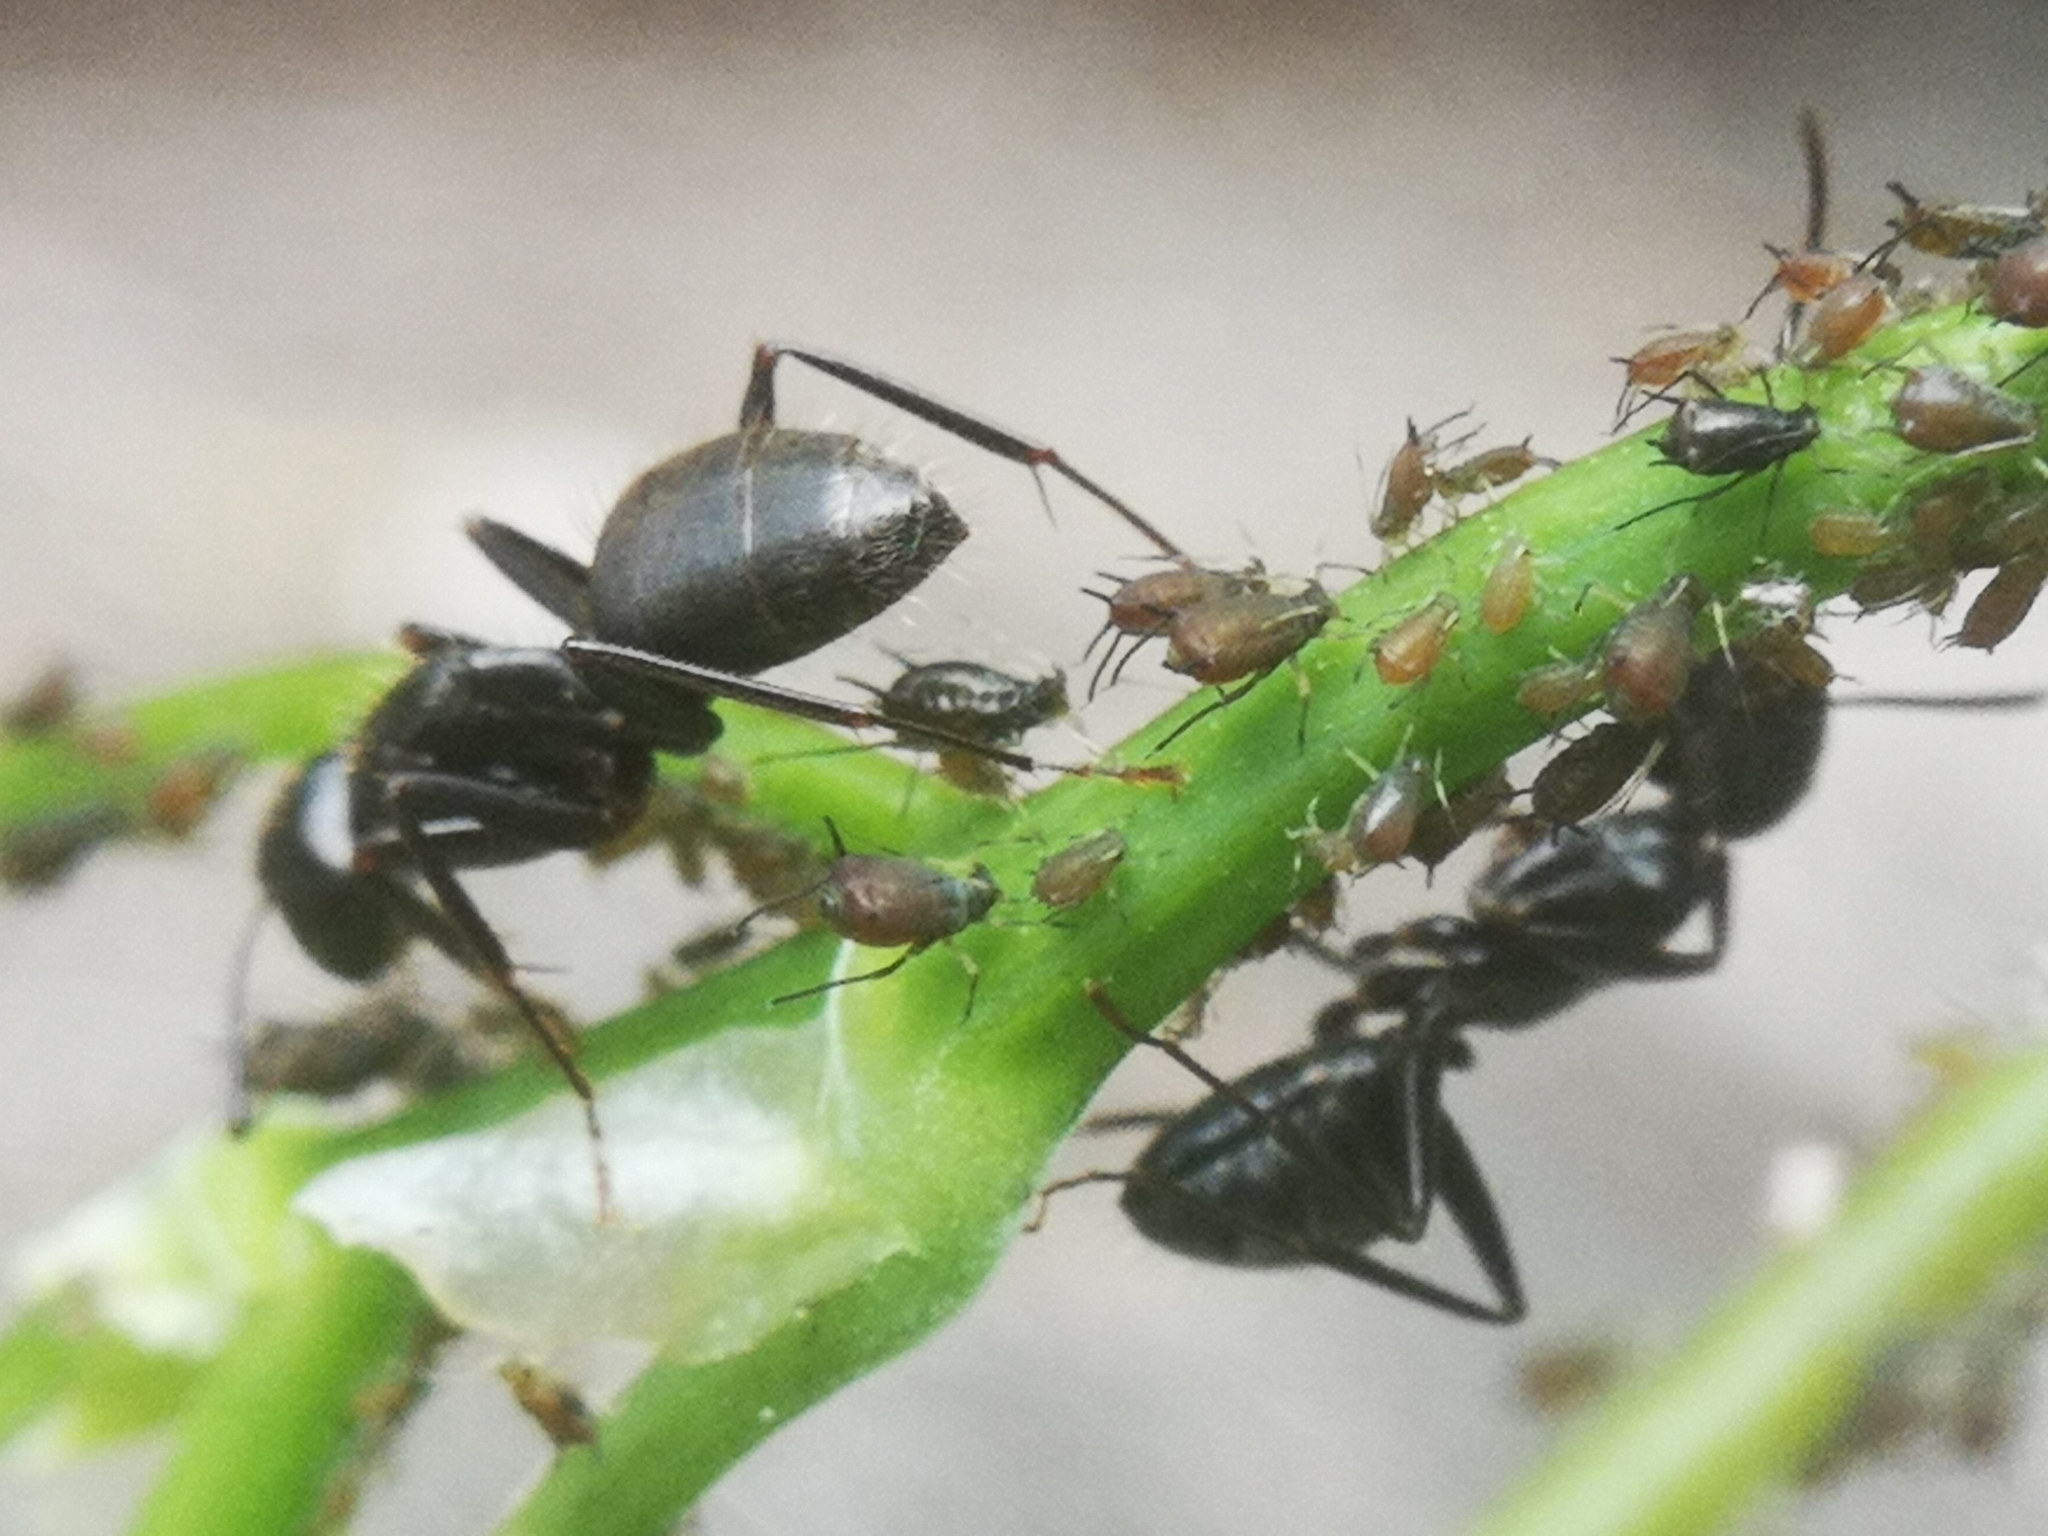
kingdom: Animalia
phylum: Arthropoda
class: Insecta
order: Hymenoptera
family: Formicidae
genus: Camponotus
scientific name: Camponotus pennsylvanicus
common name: Black carpenter ant
